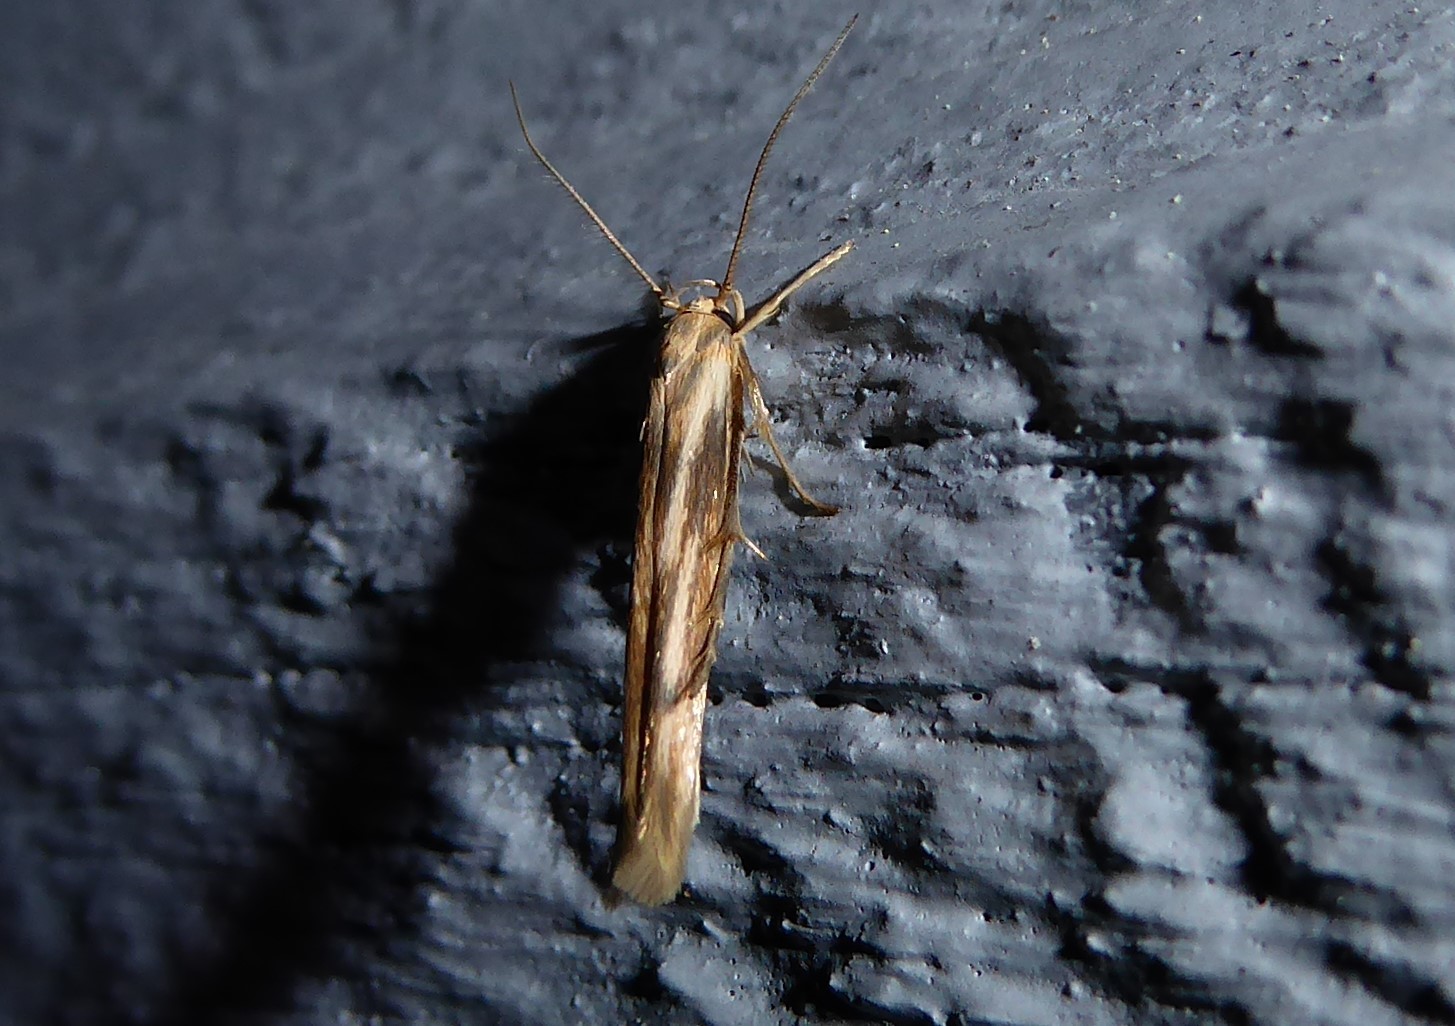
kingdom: Animalia
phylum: Arthropoda
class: Insecta
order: Lepidoptera
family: Stathmopodidae
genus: Stathmopoda
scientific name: Stathmopoda aposema
